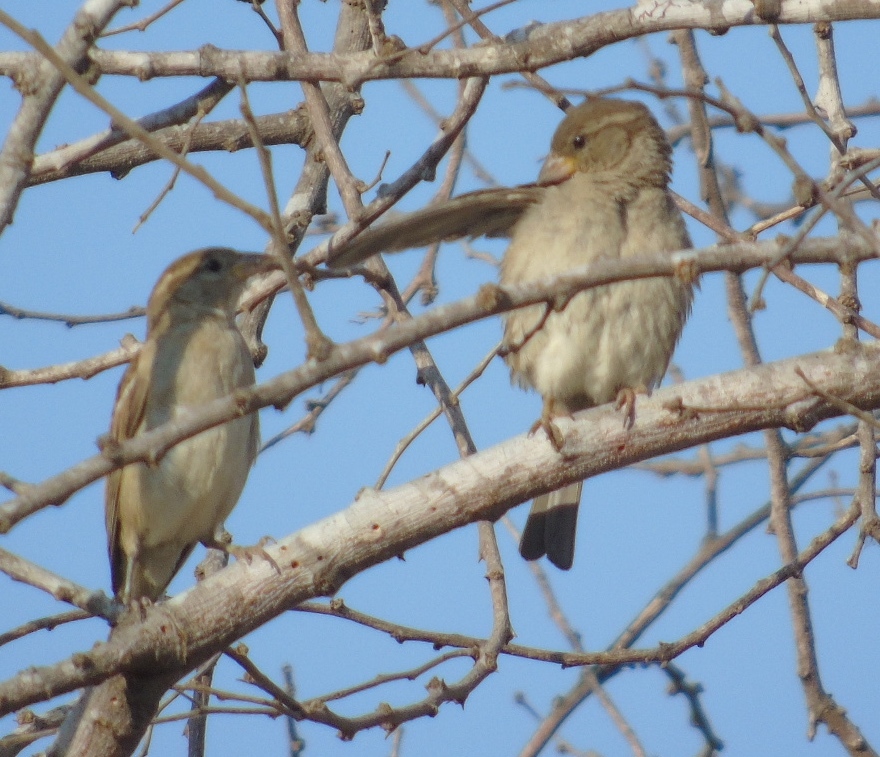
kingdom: Animalia
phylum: Chordata
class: Aves
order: Passeriformes
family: Passeridae
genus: Passer
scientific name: Passer domesticus
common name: House sparrow
